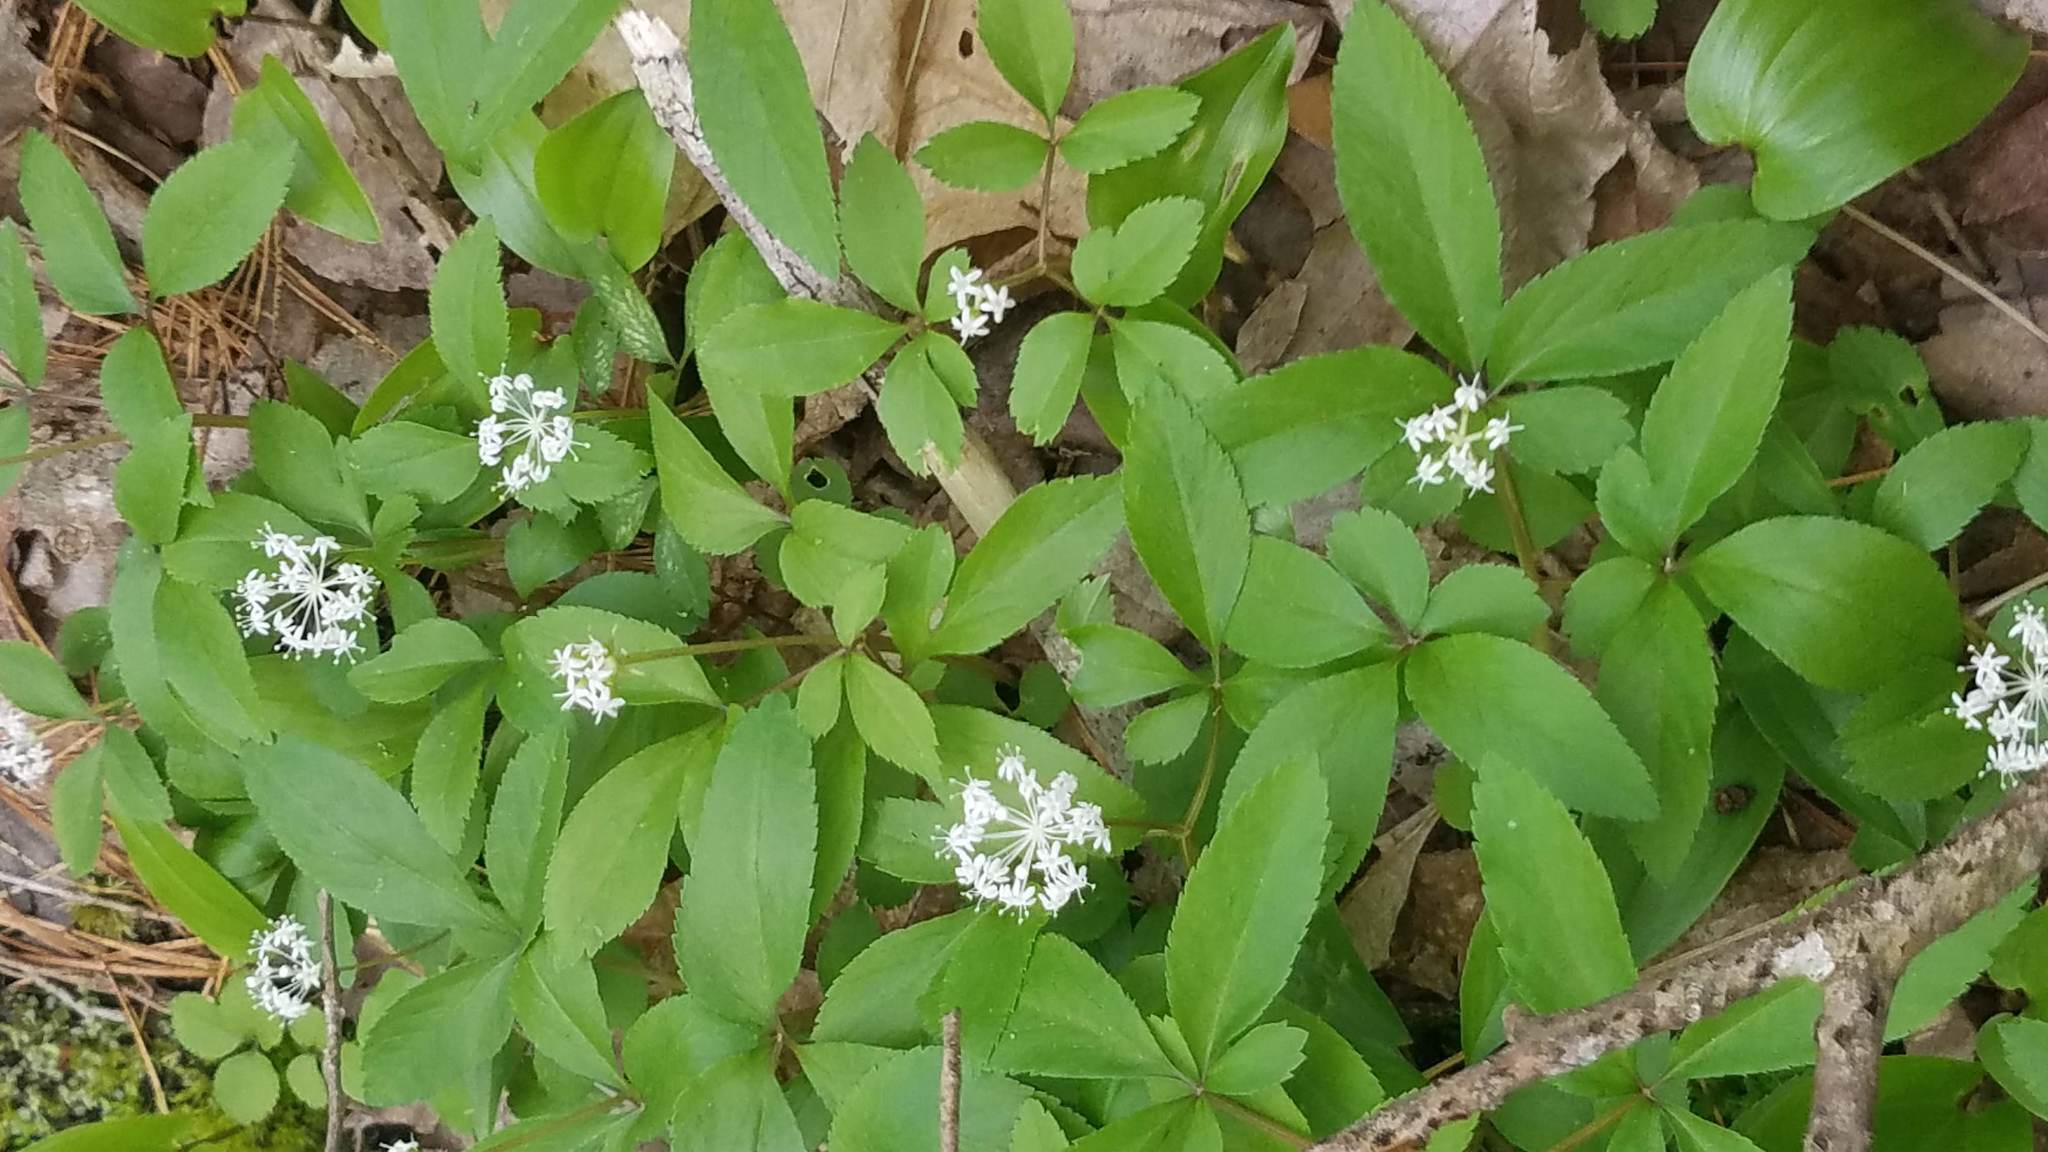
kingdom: Plantae
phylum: Tracheophyta
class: Magnoliopsida
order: Apiales
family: Araliaceae
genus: Panax
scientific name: Panax trifolius
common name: Dwarf ginseng
